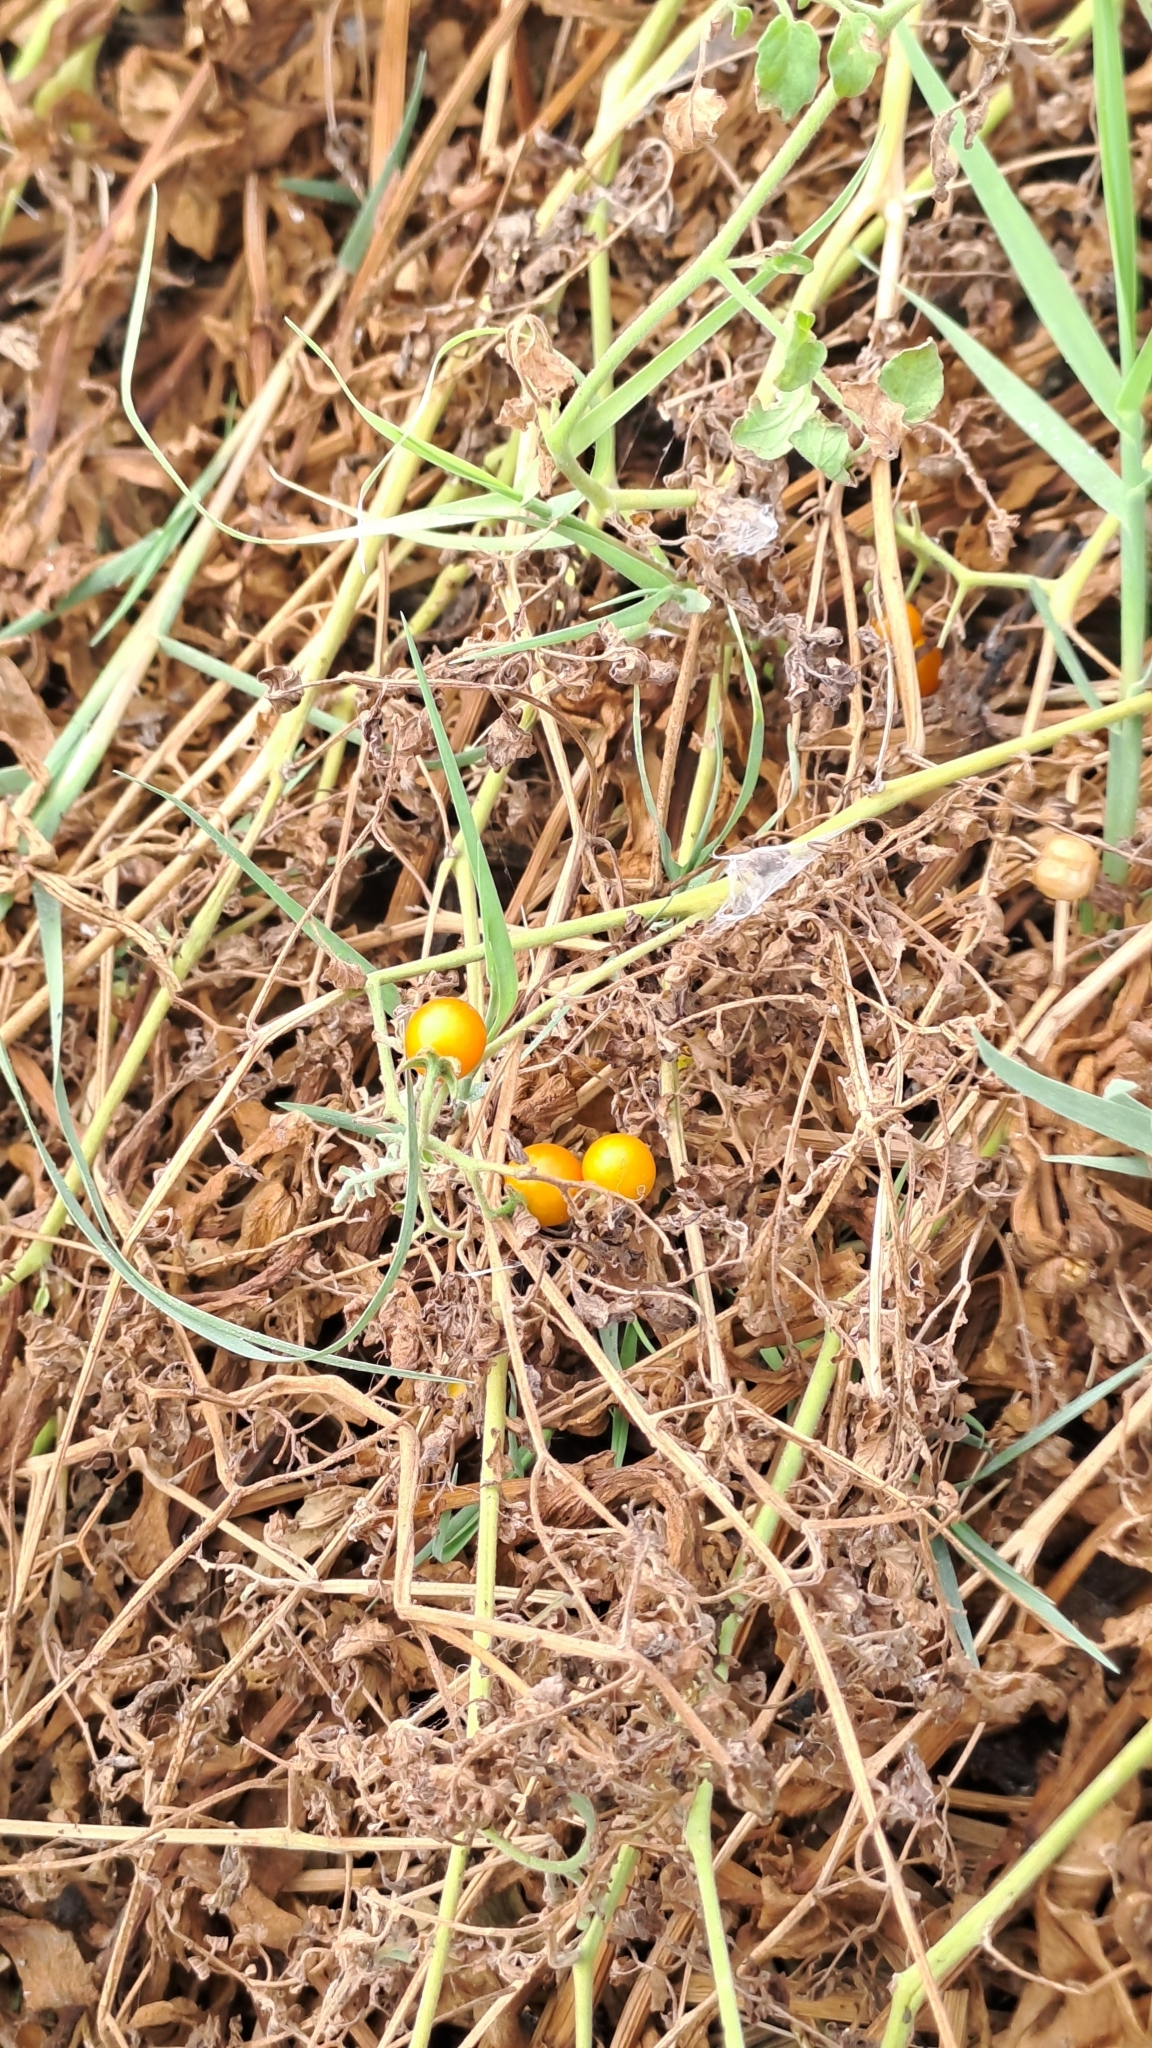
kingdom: Plantae
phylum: Tracheophyta
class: Magnoliopsida
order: Solanales
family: Solanaceae
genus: Solanum
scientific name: Solanum pimpinellifolium
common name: Currant-tomato
